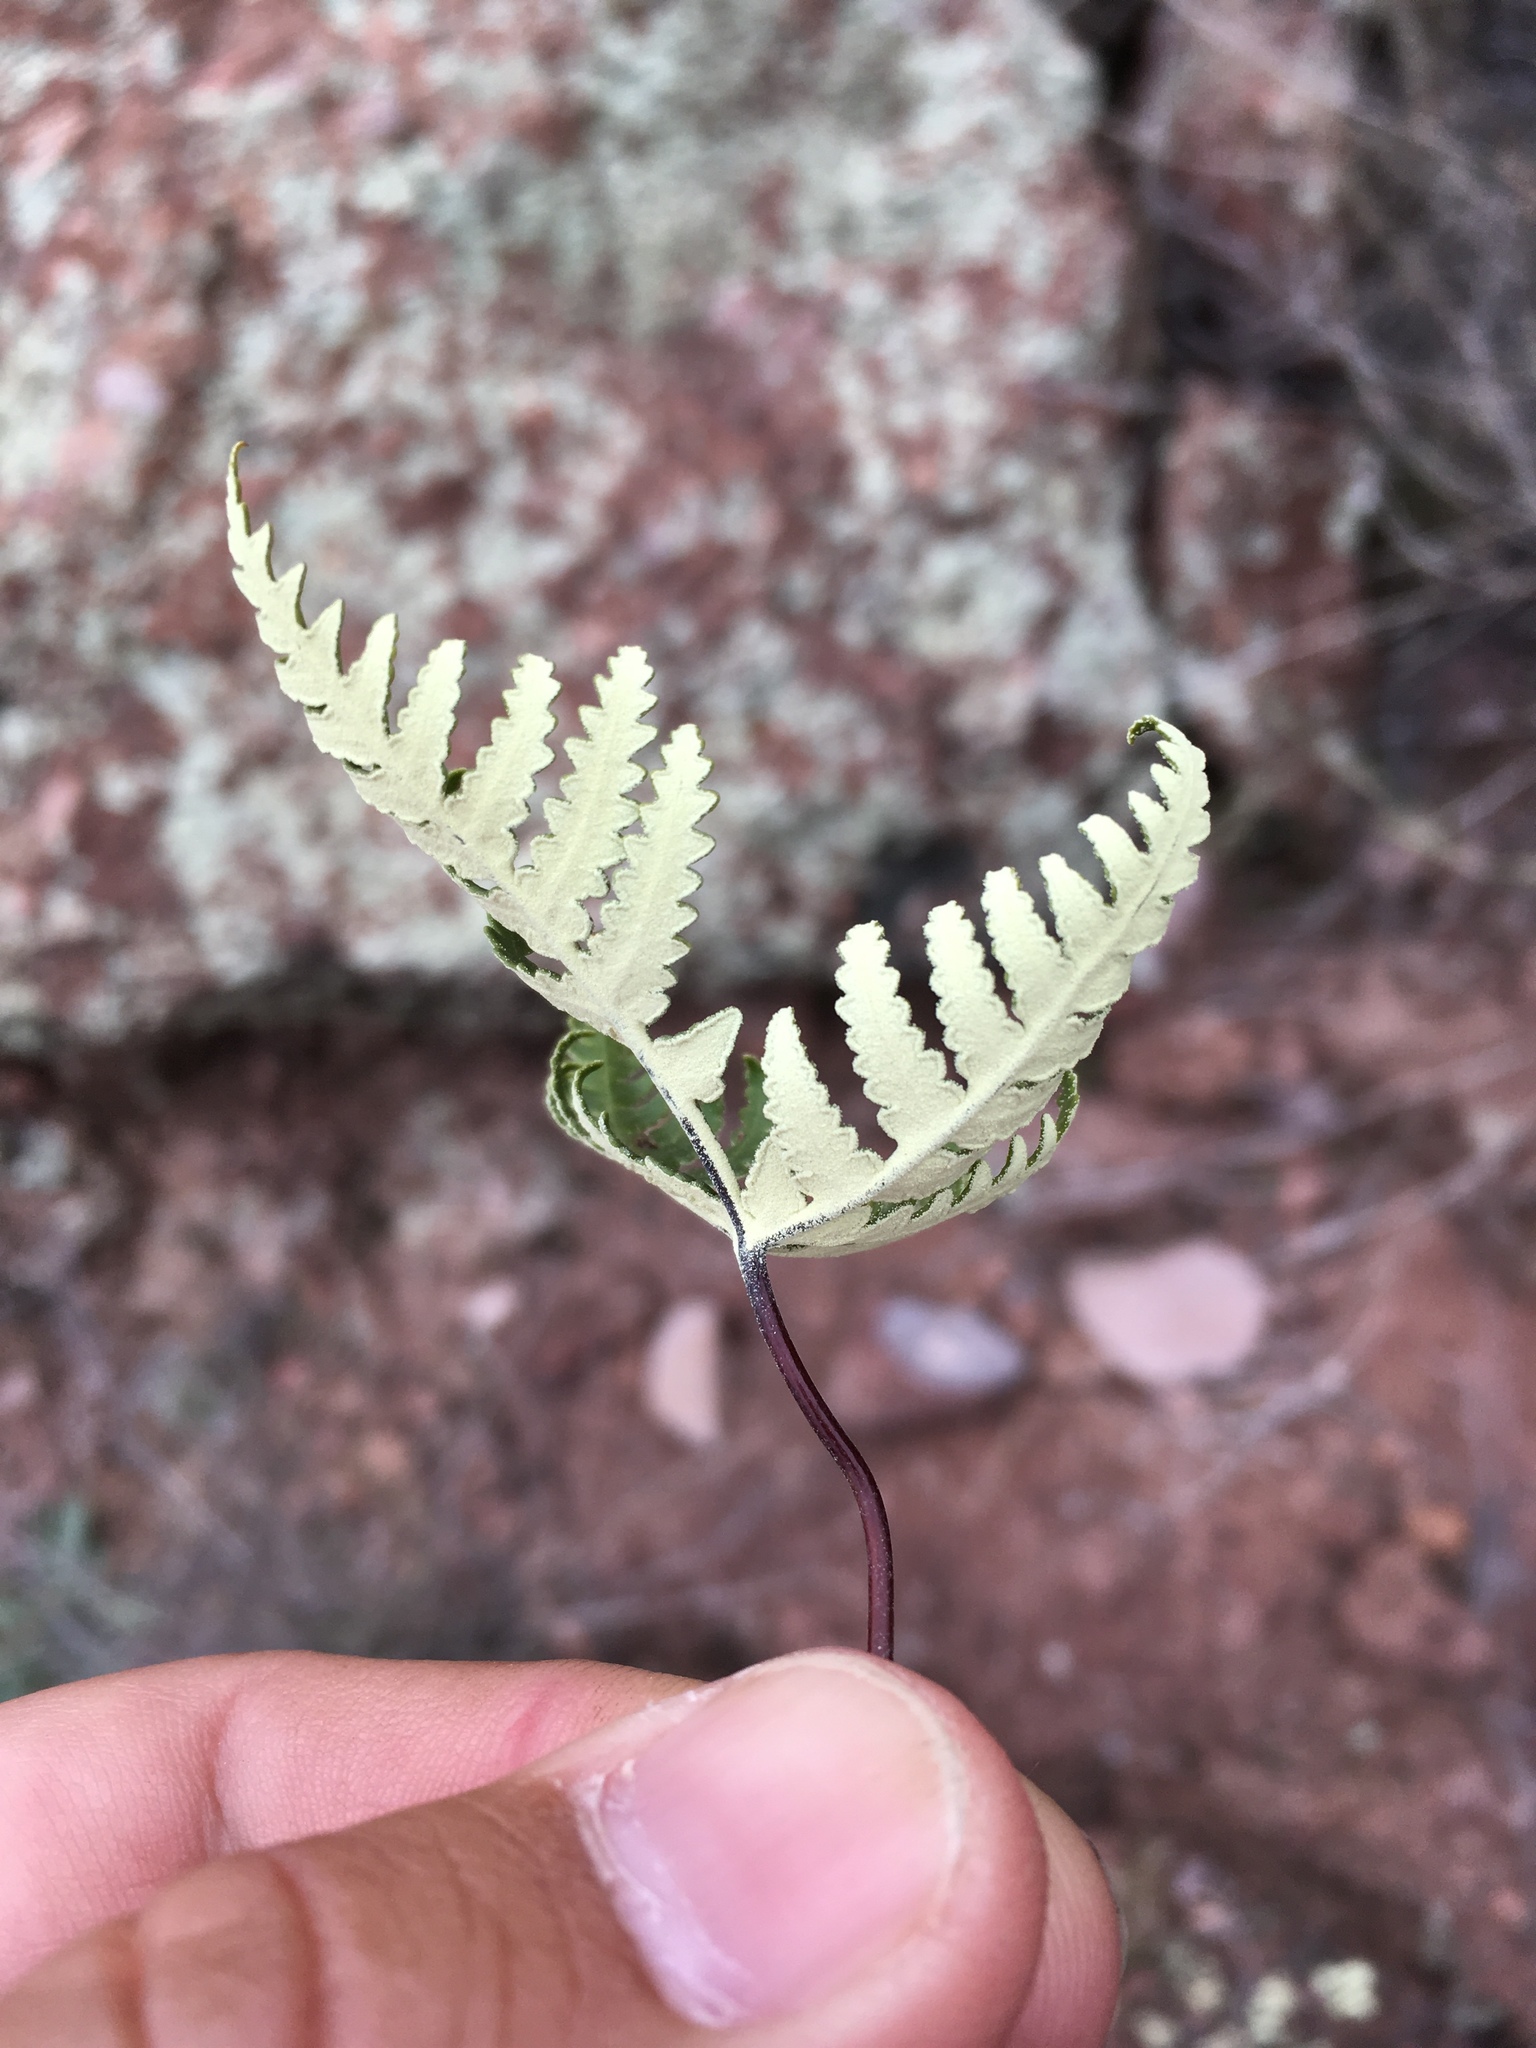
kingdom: Plantae
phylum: Tracheophyta
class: Polypodiopsida
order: Polypodiales
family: Pteridaceae
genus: Notholaena
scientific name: Notholaena standleyi
